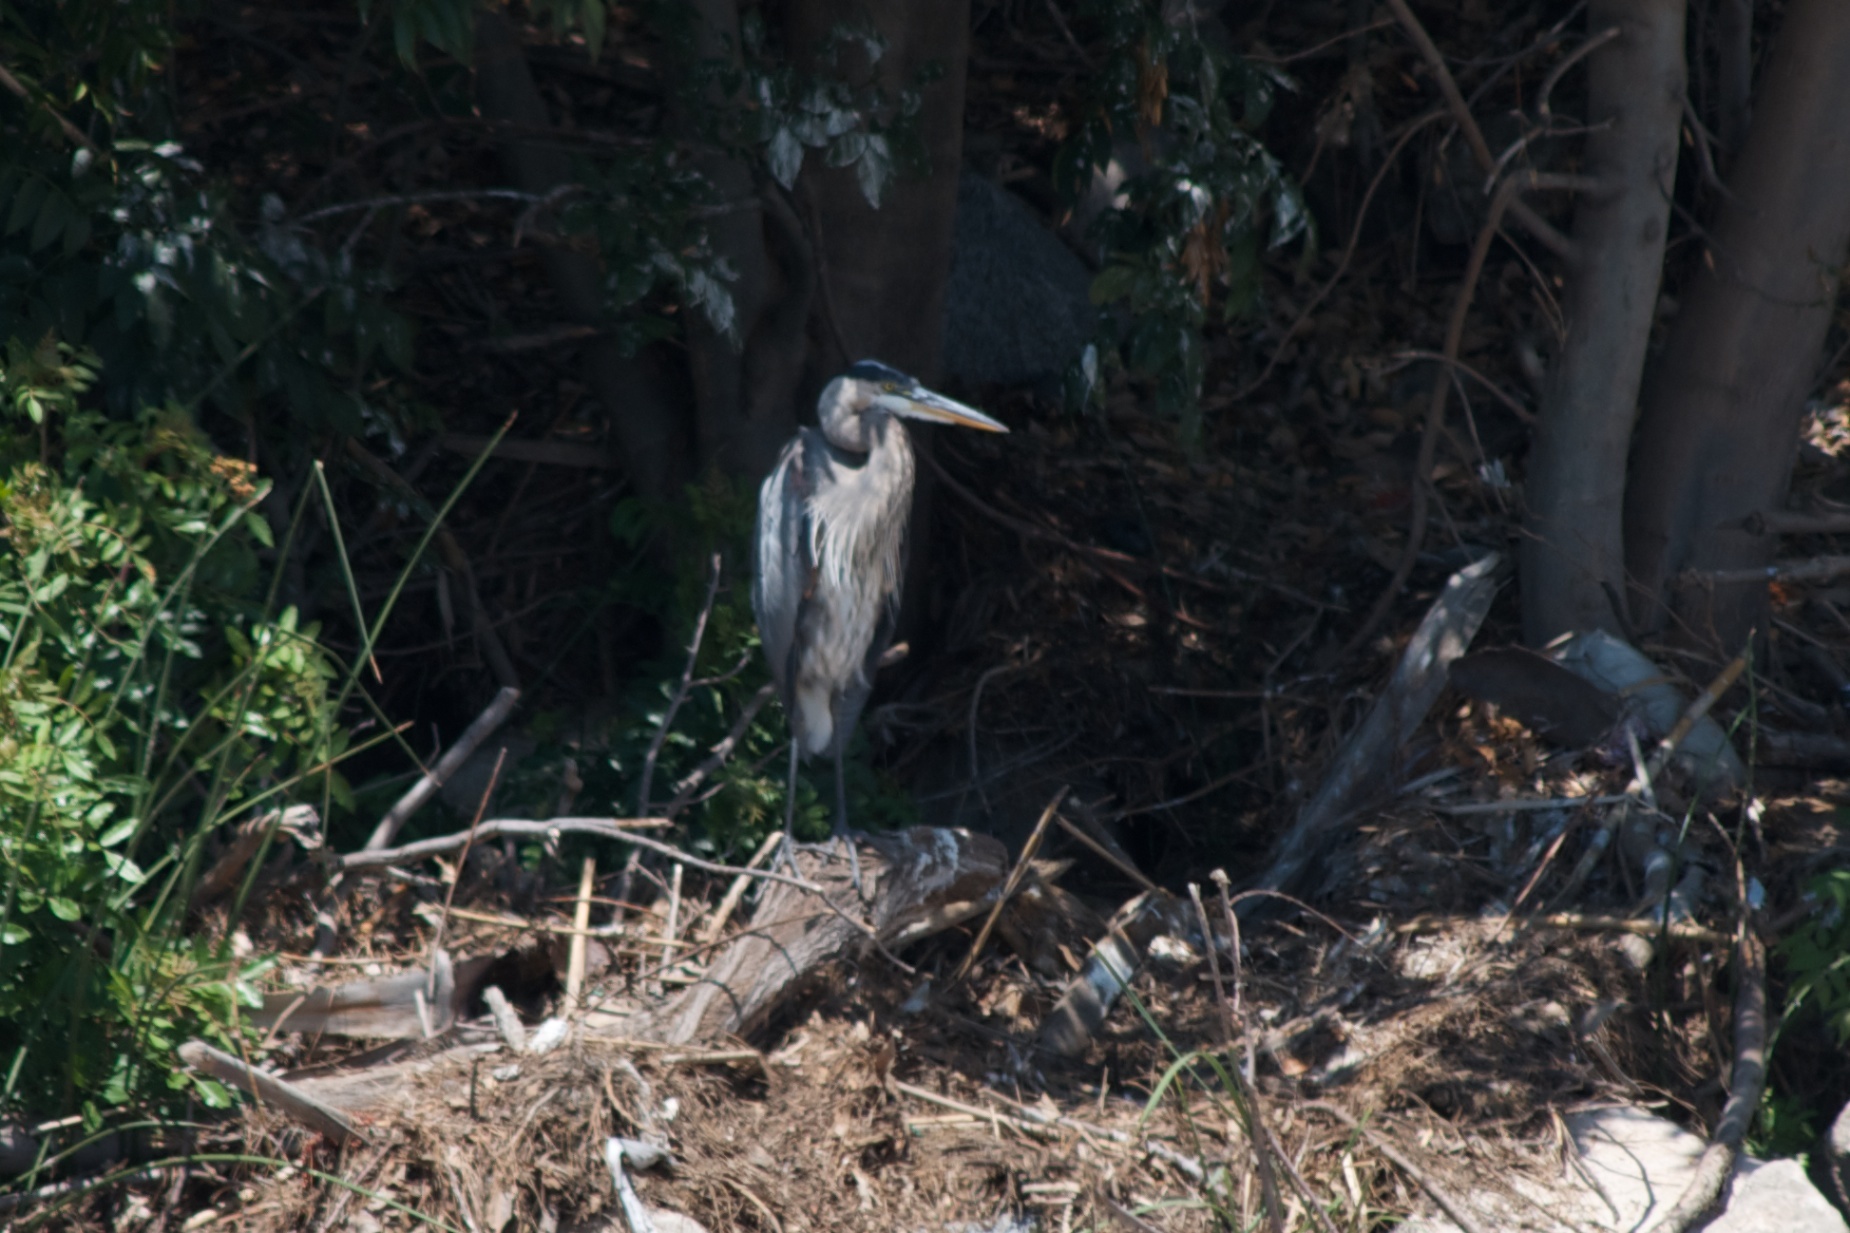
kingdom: Animalia
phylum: Chordata
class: Aves
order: Pelecaniformes
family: Ardeidae
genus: Ardea
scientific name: Ardea herodias
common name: Great blue heron
